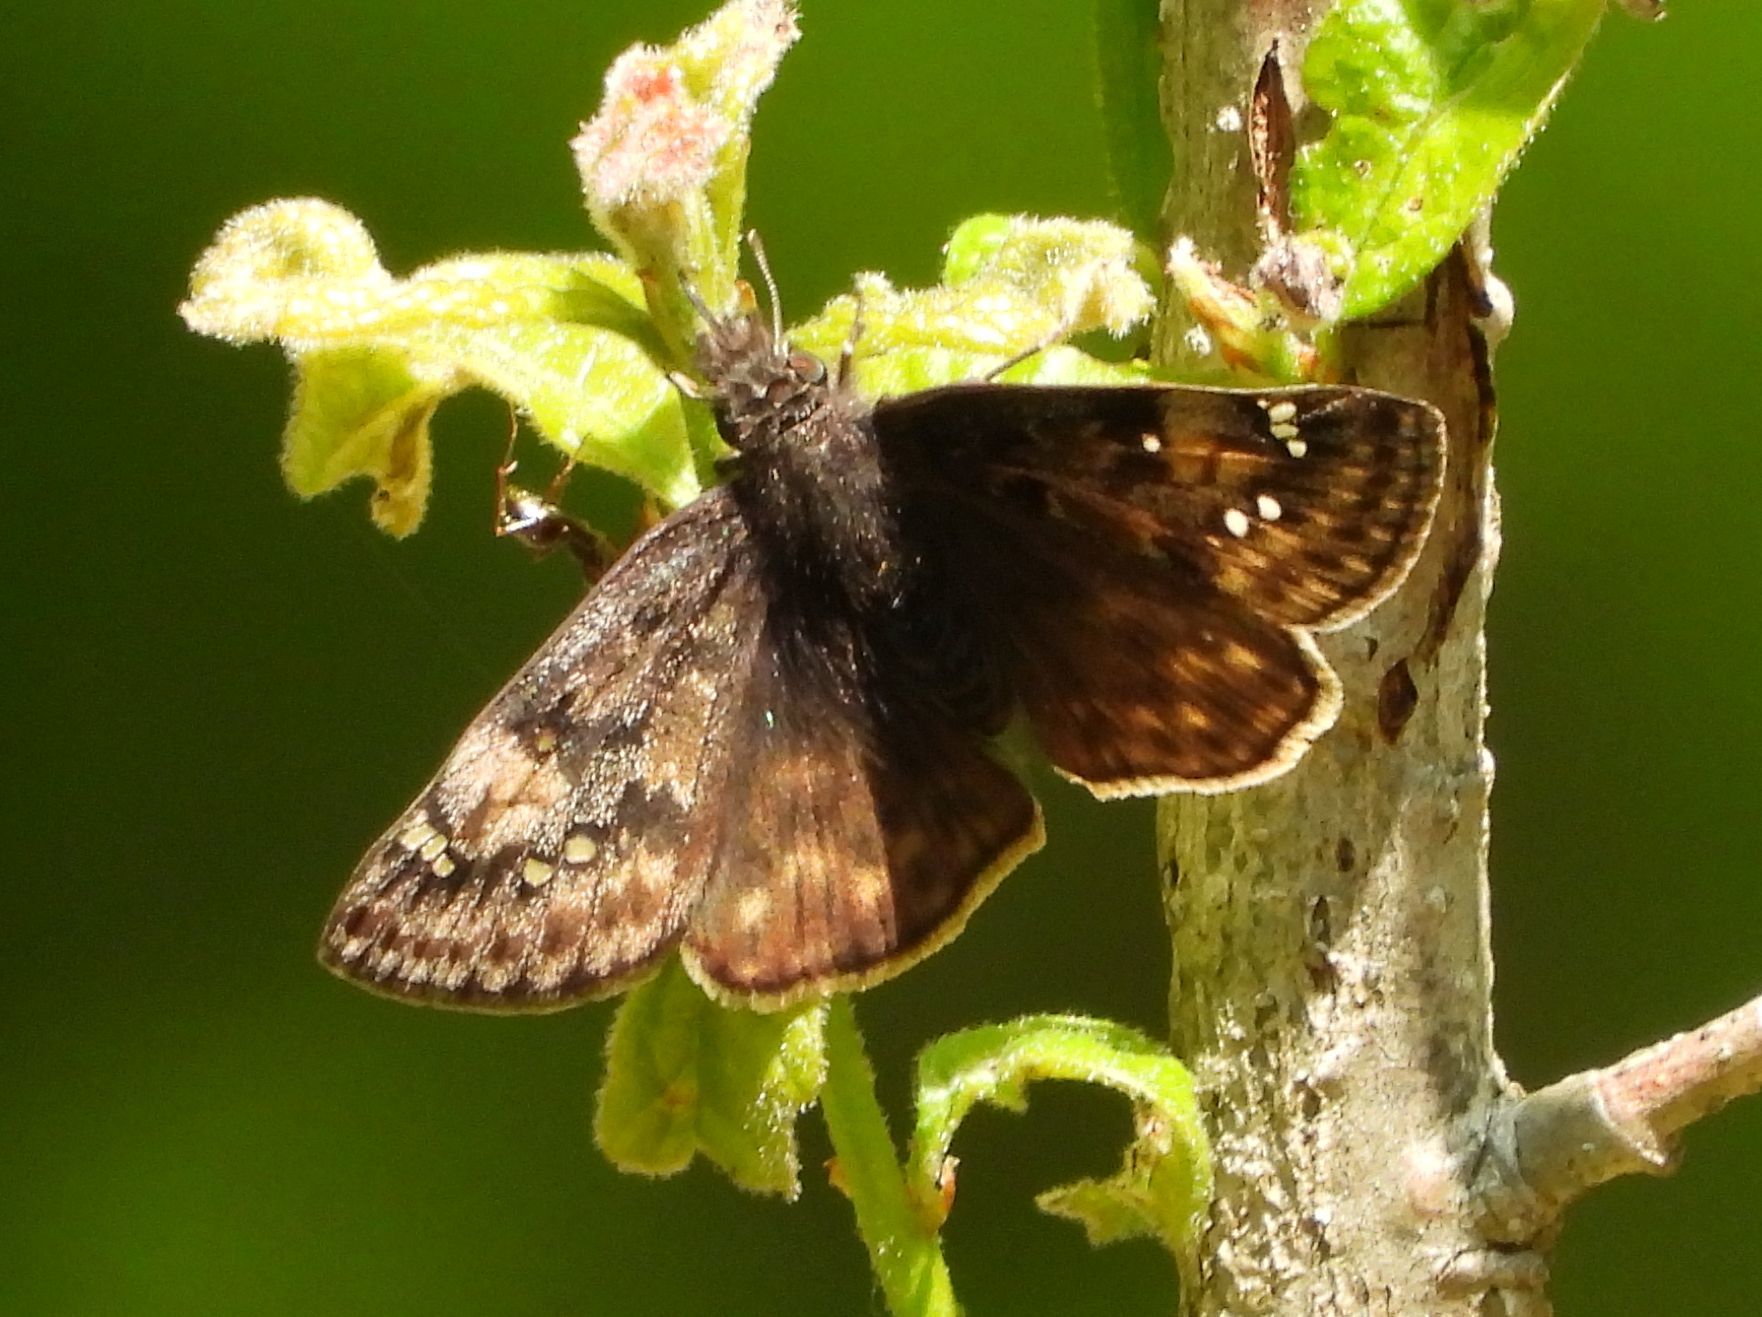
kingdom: Animalia
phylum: Arthropoda
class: Insecta
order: Lepidoptera
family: Hesperiidae
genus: Erynnis
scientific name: Erynnis juvenalis
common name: Juvenal's duskywing
